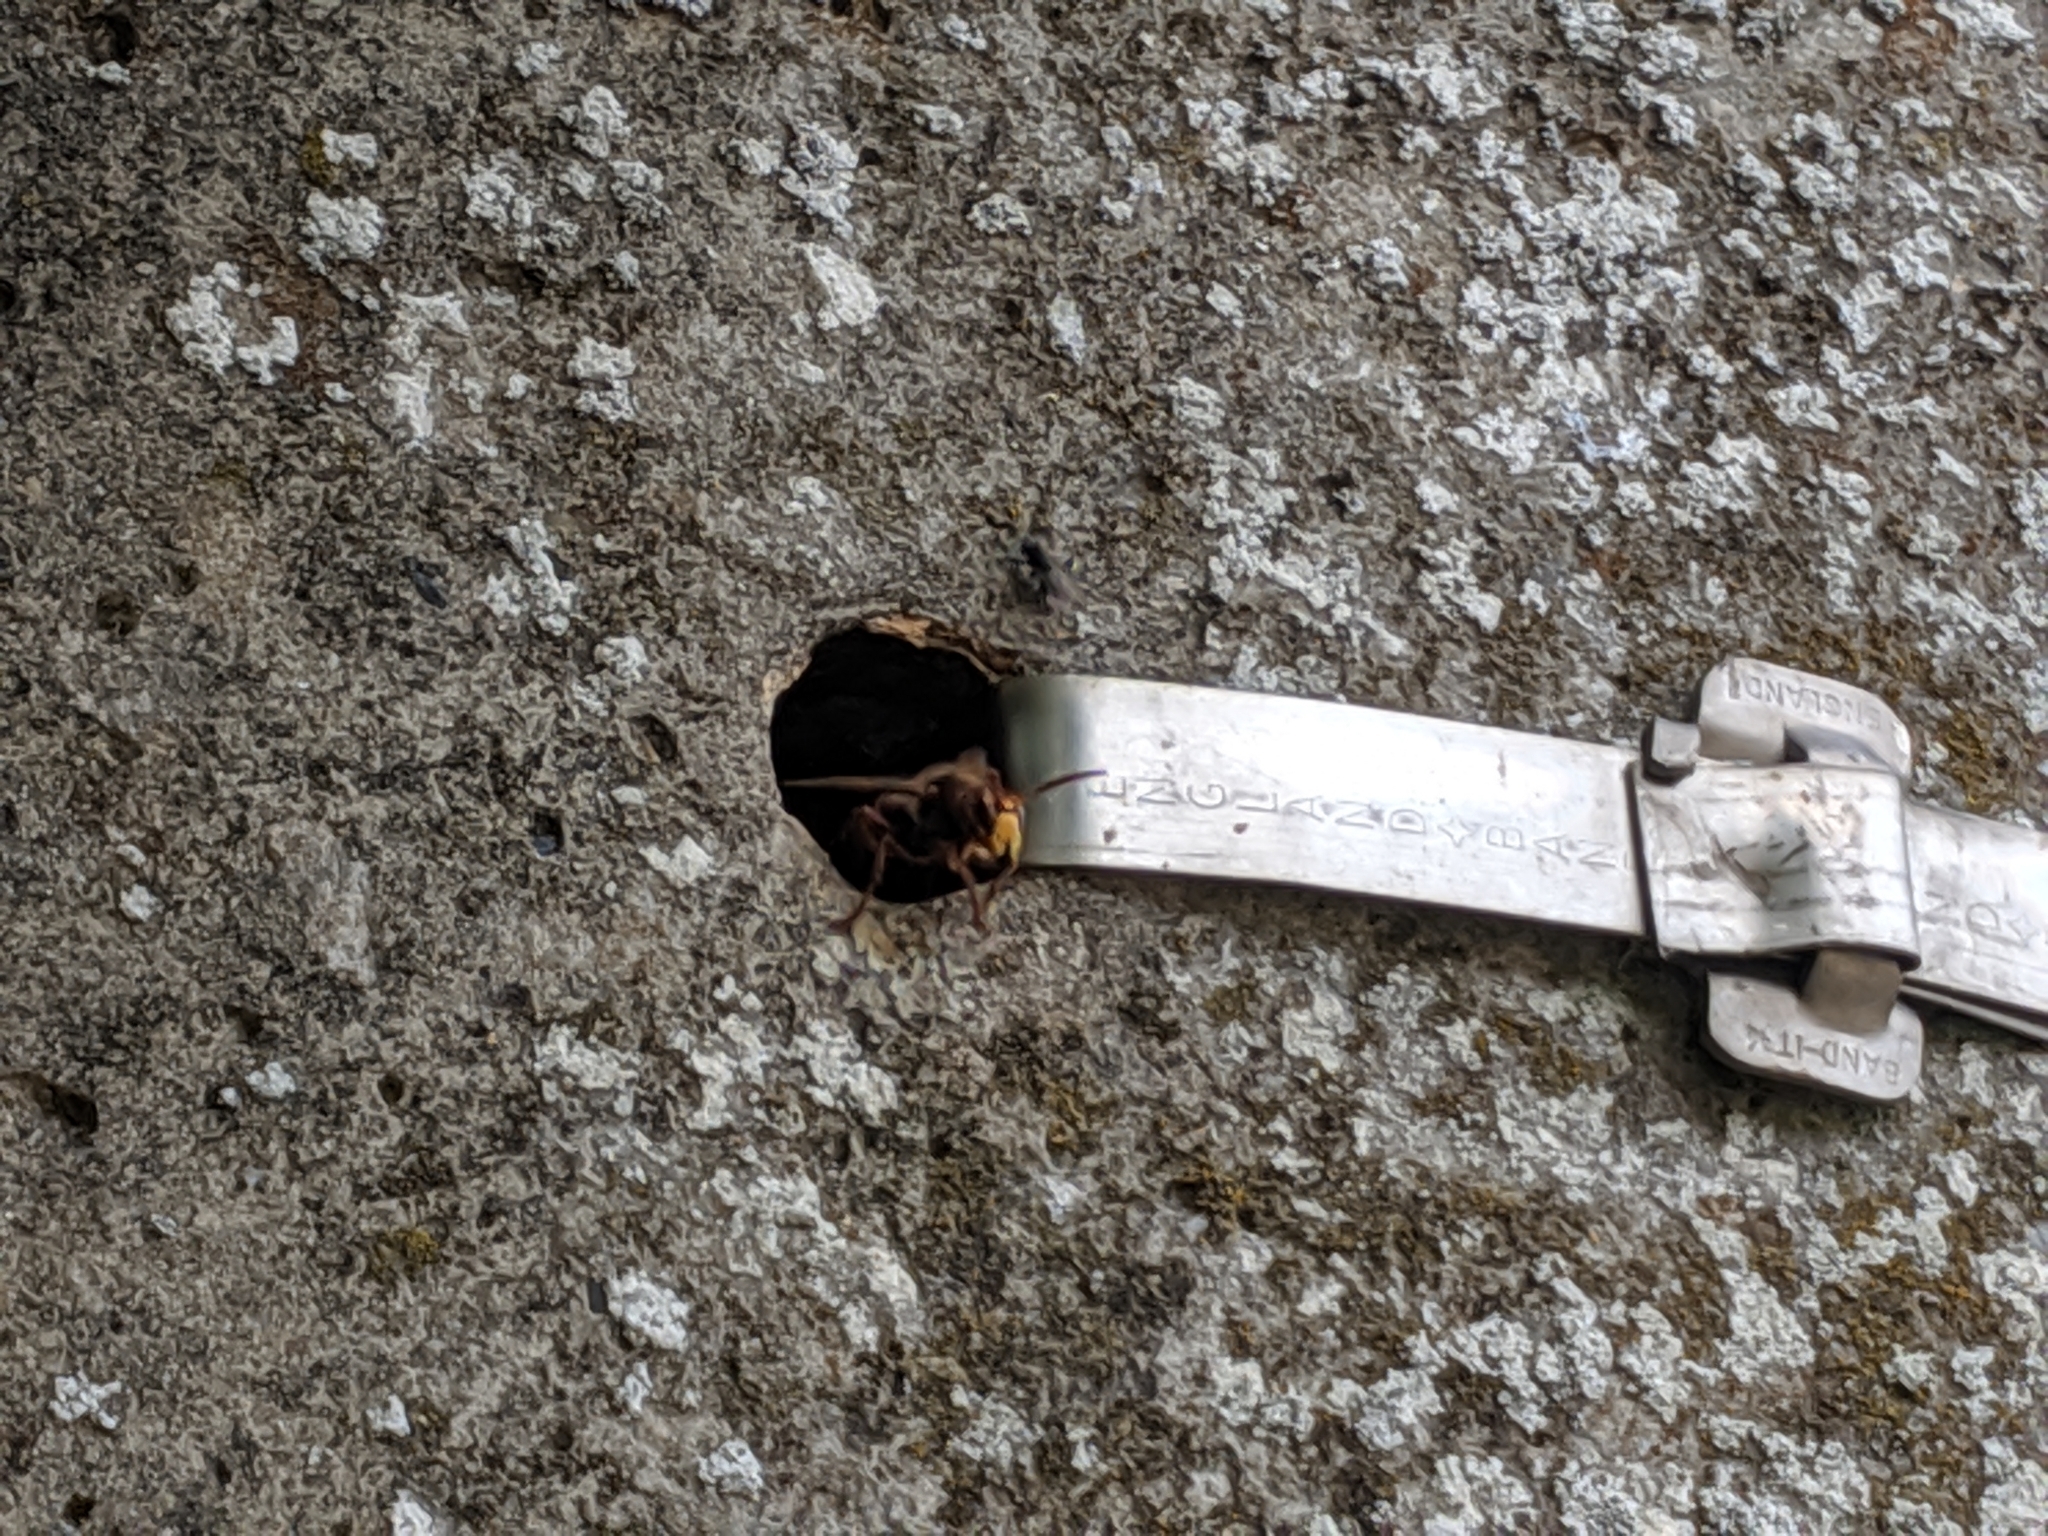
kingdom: Animalia
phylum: Arthropoda
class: Insecta
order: Hymenoptera
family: Vespidae
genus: Vespa
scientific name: Vespa crabro
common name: Hornet
